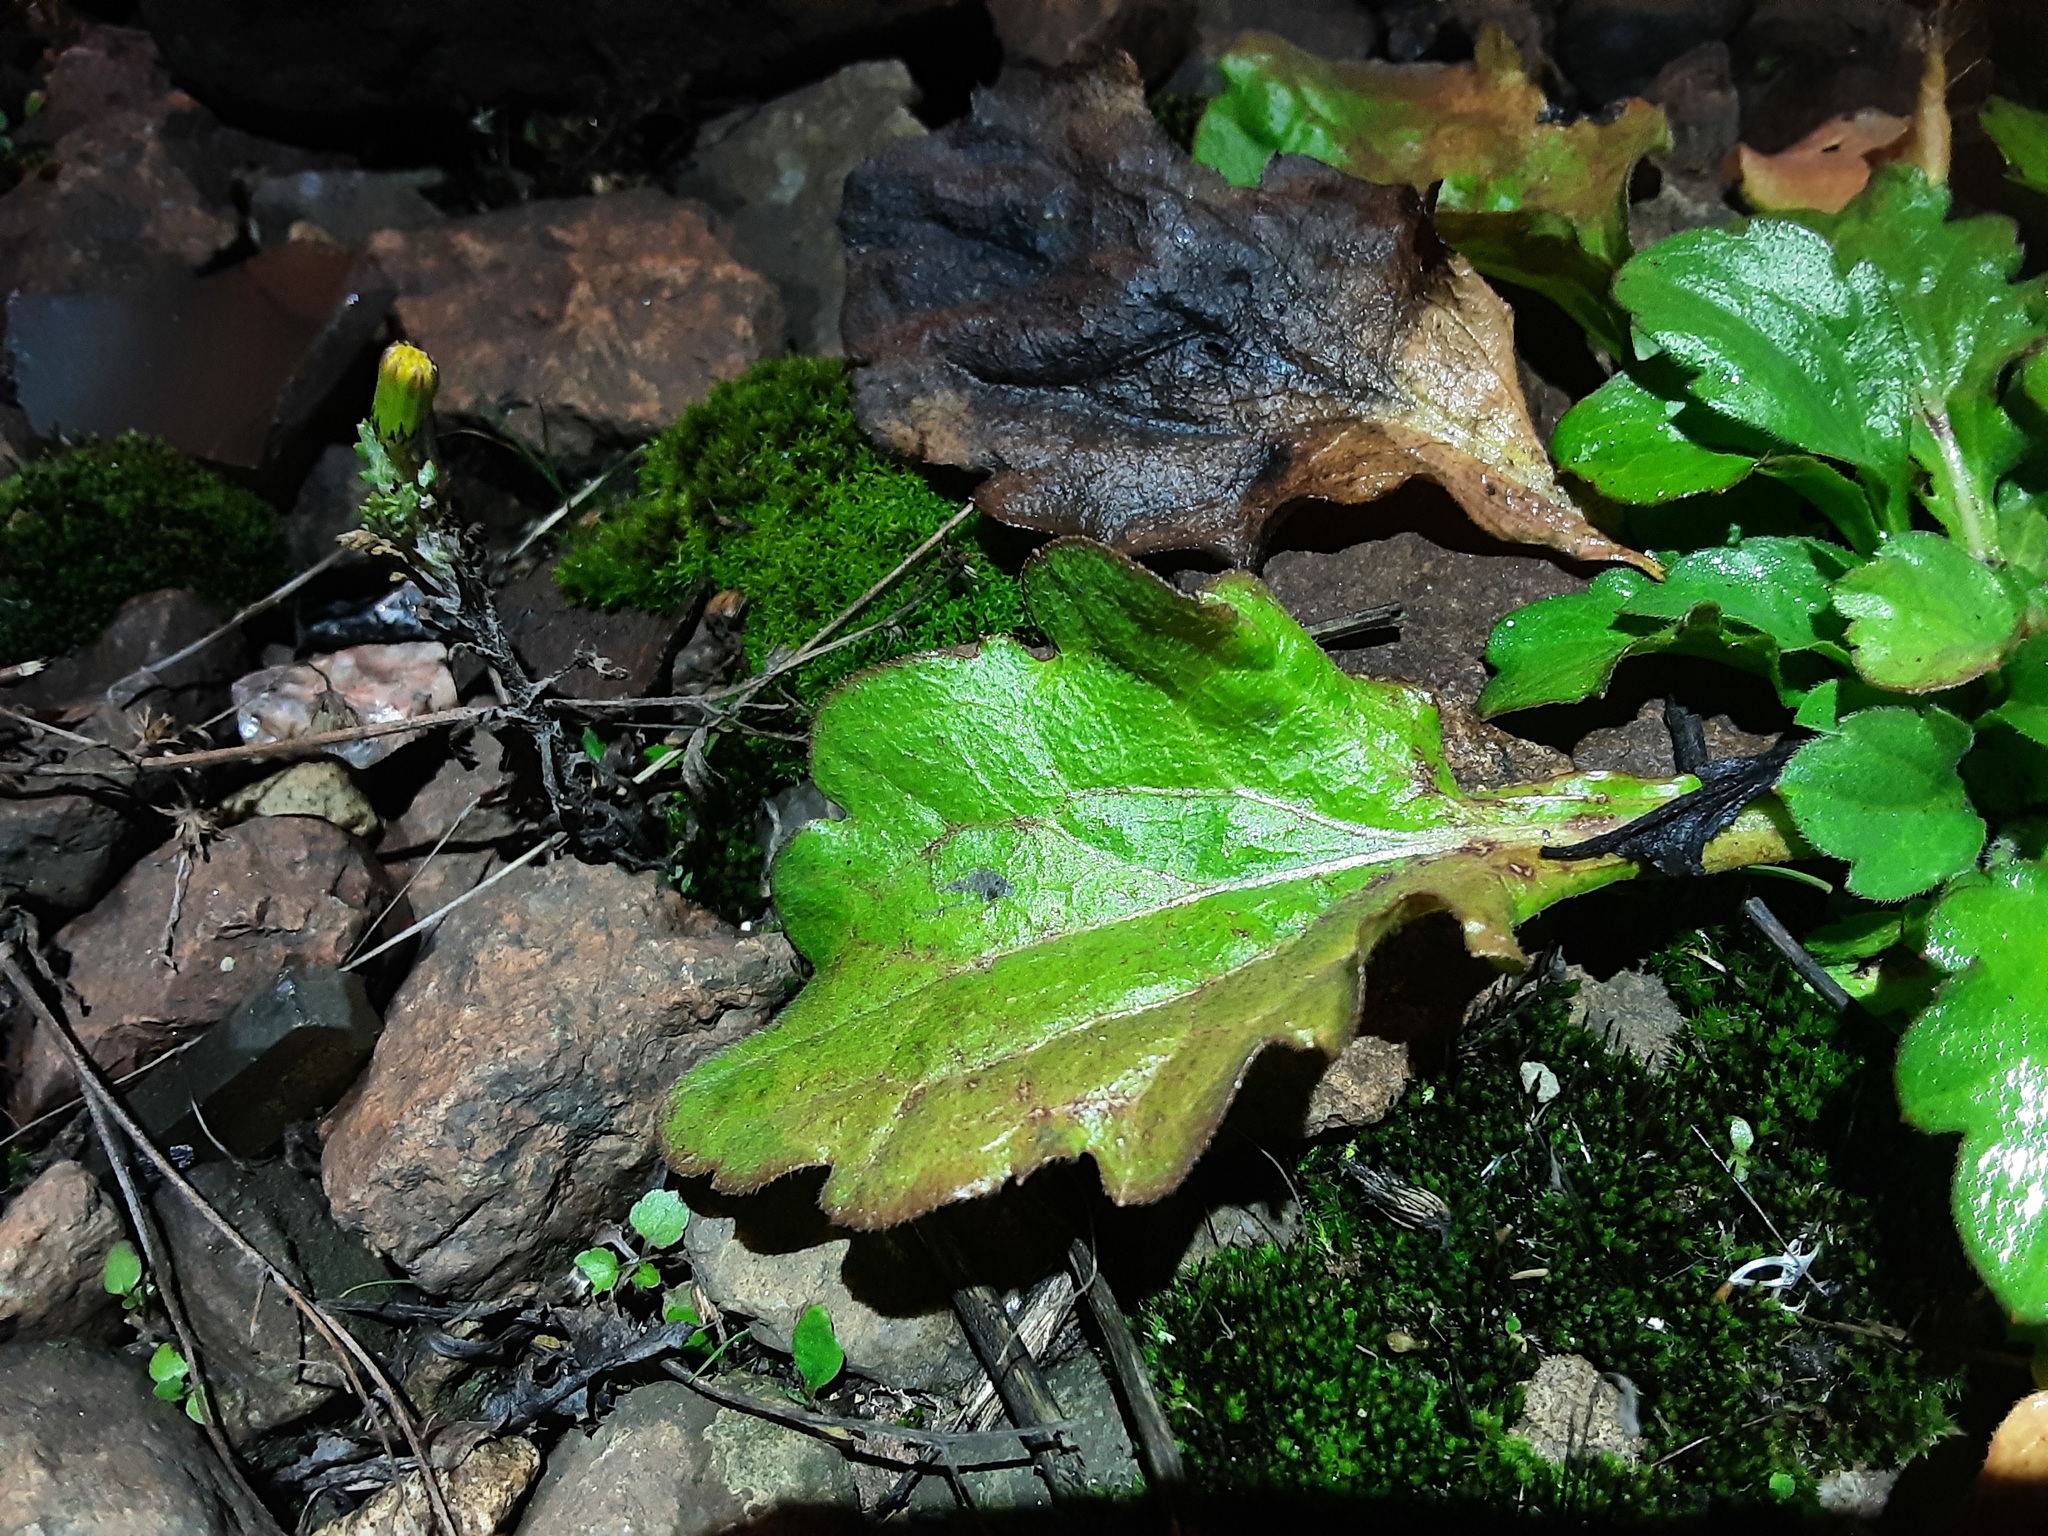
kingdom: Plantae
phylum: Tracheophyta
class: Magnoliopsida
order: Asterales
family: Asteraceae
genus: Erigeron
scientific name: Erigeron annuus
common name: Tall fleabane
